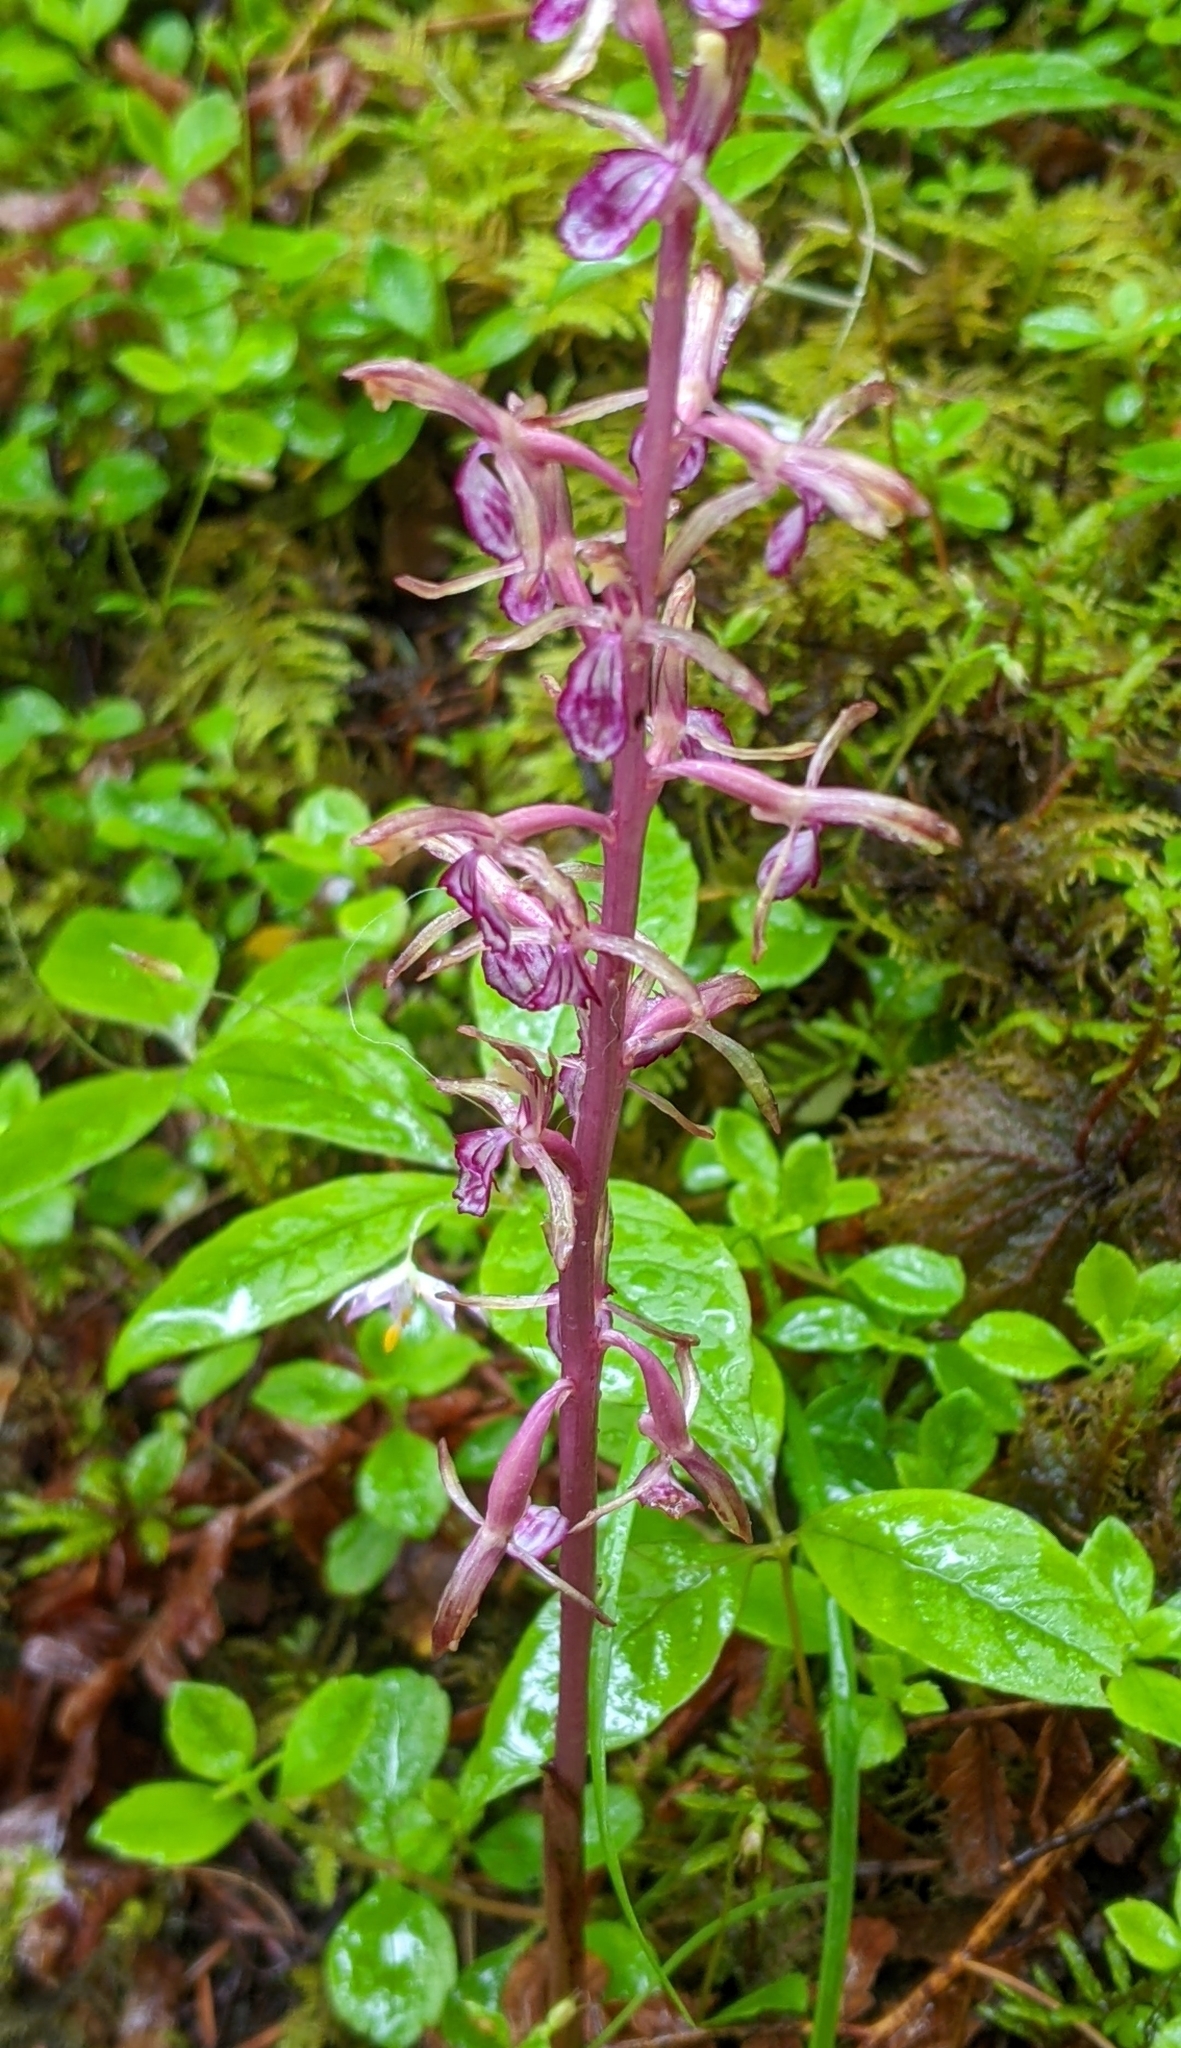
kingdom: Plantae
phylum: Tracheophyta
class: Liliopsida
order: Asparagales
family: Orchidaceae
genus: Corallorhiza
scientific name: Corallorhiza mertensiana
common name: Pacific coralroot
